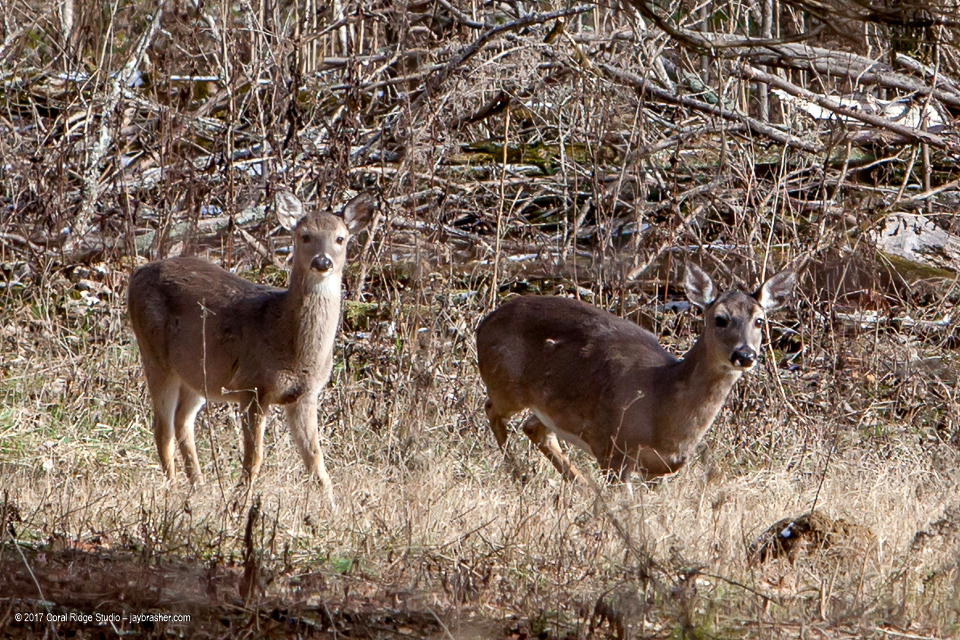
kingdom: Animalia
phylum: Chordata
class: Mammalia
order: Artiodactyla
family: Cervidae
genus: Odocoileus
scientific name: Odocoileus virginianus
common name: White-tailed deer
